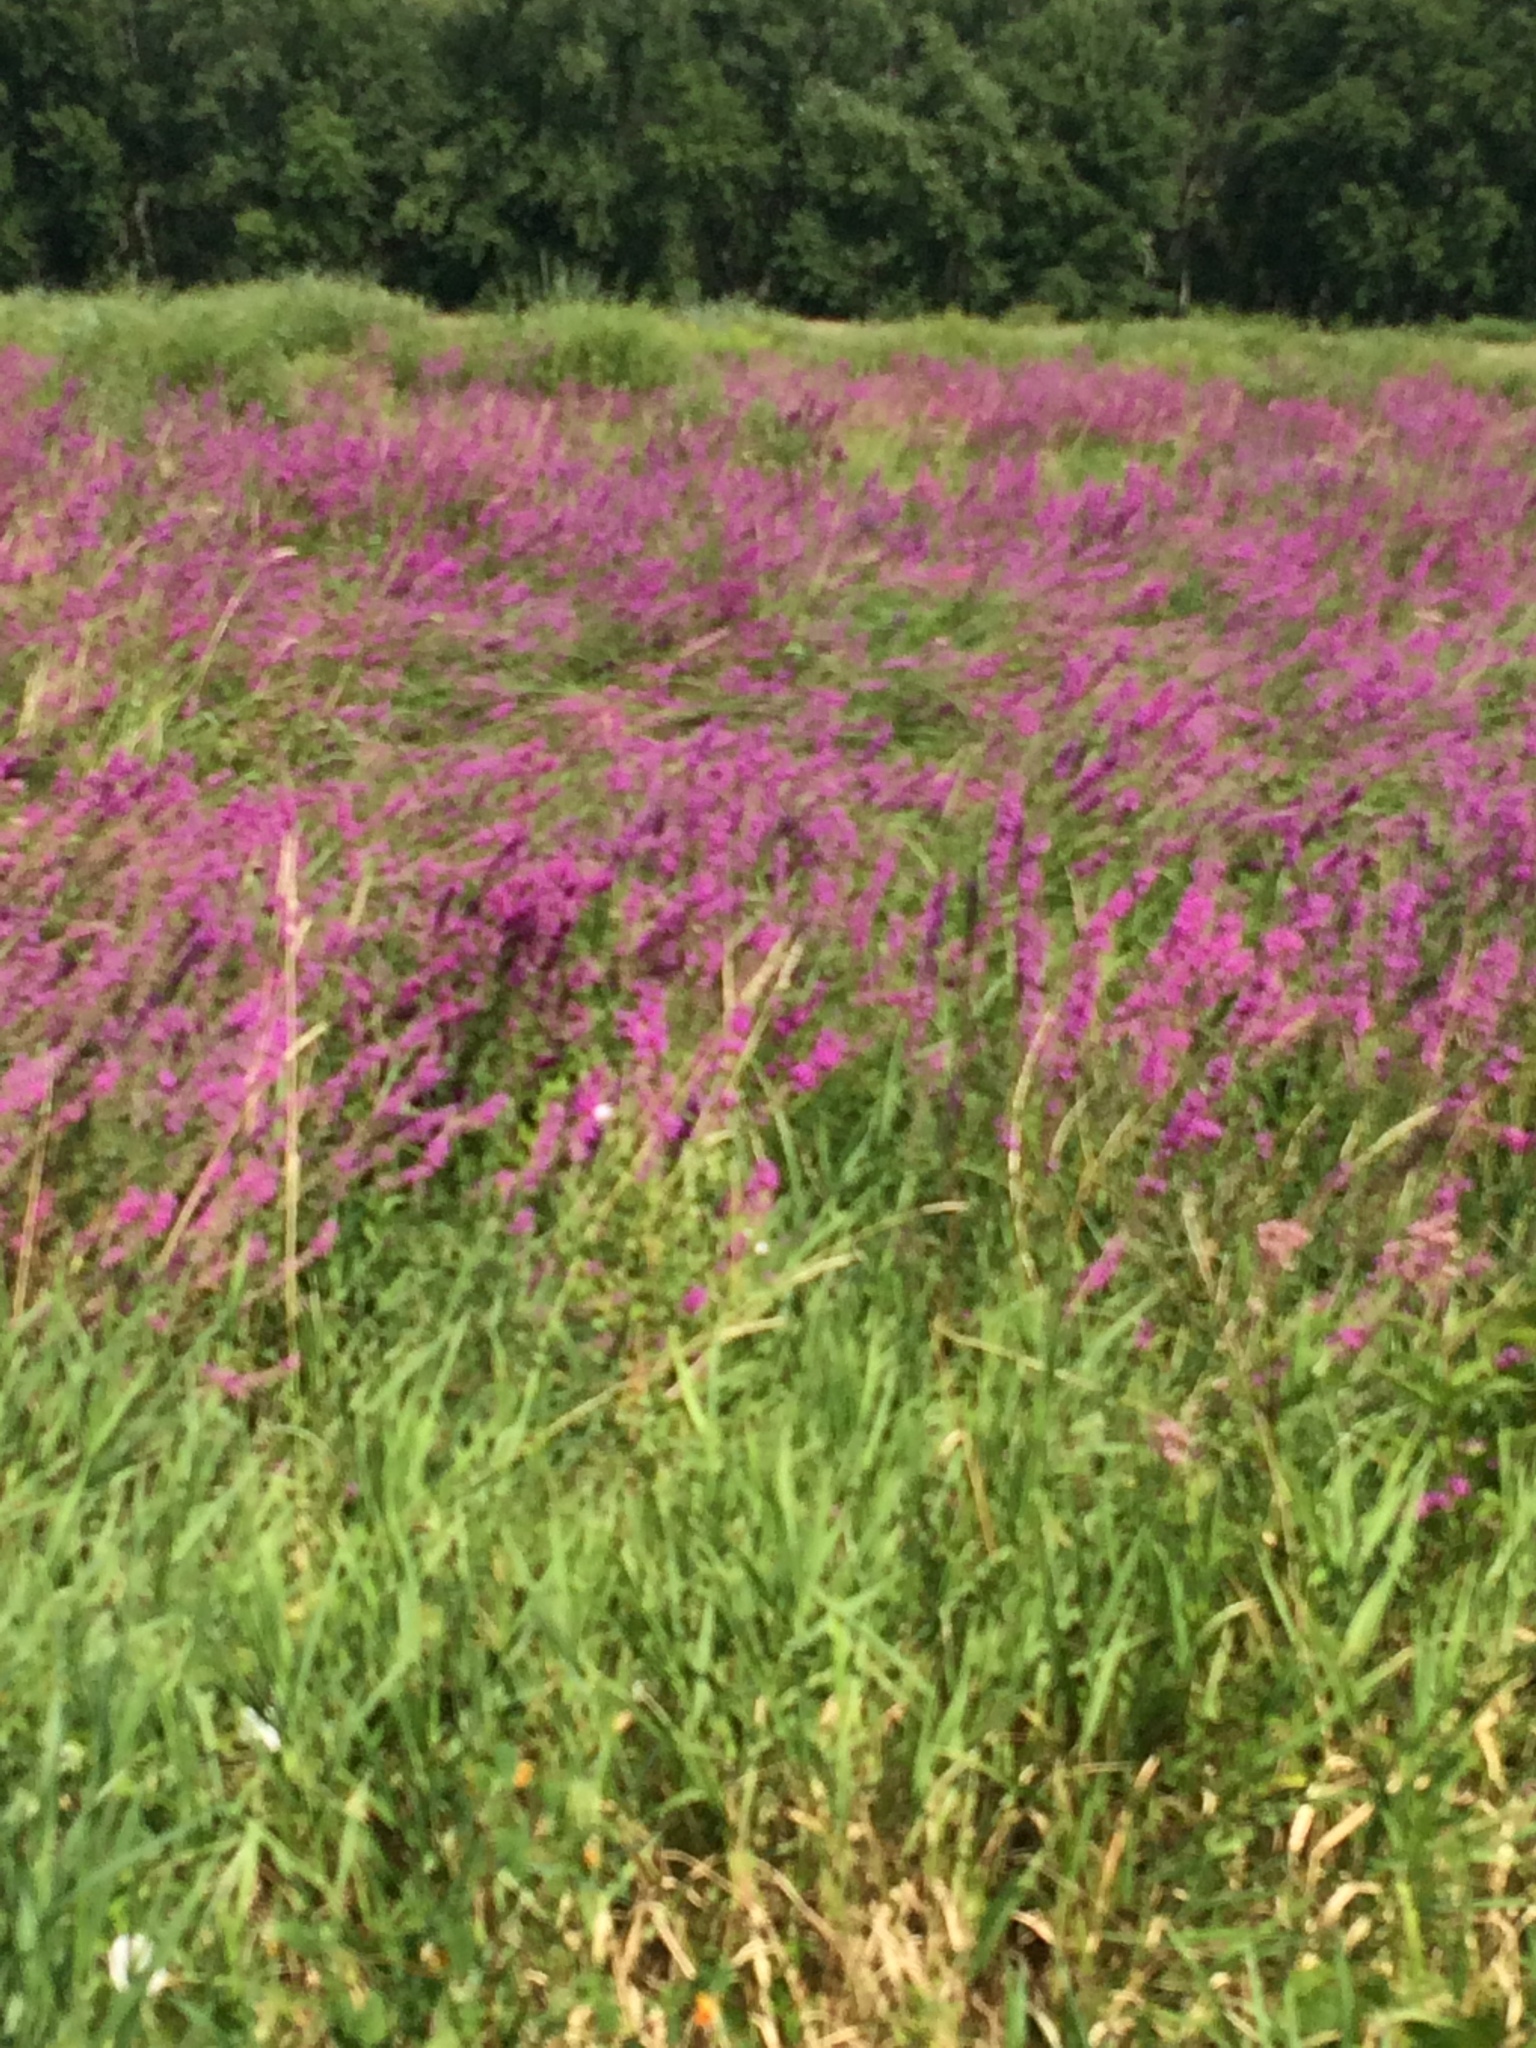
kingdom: Plantae
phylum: Tracheophyta
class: Magnoliopsida
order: Myrtales
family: Lythraceae
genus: Lythrum
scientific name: Lythrum salicaria
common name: Purple loosestrife
